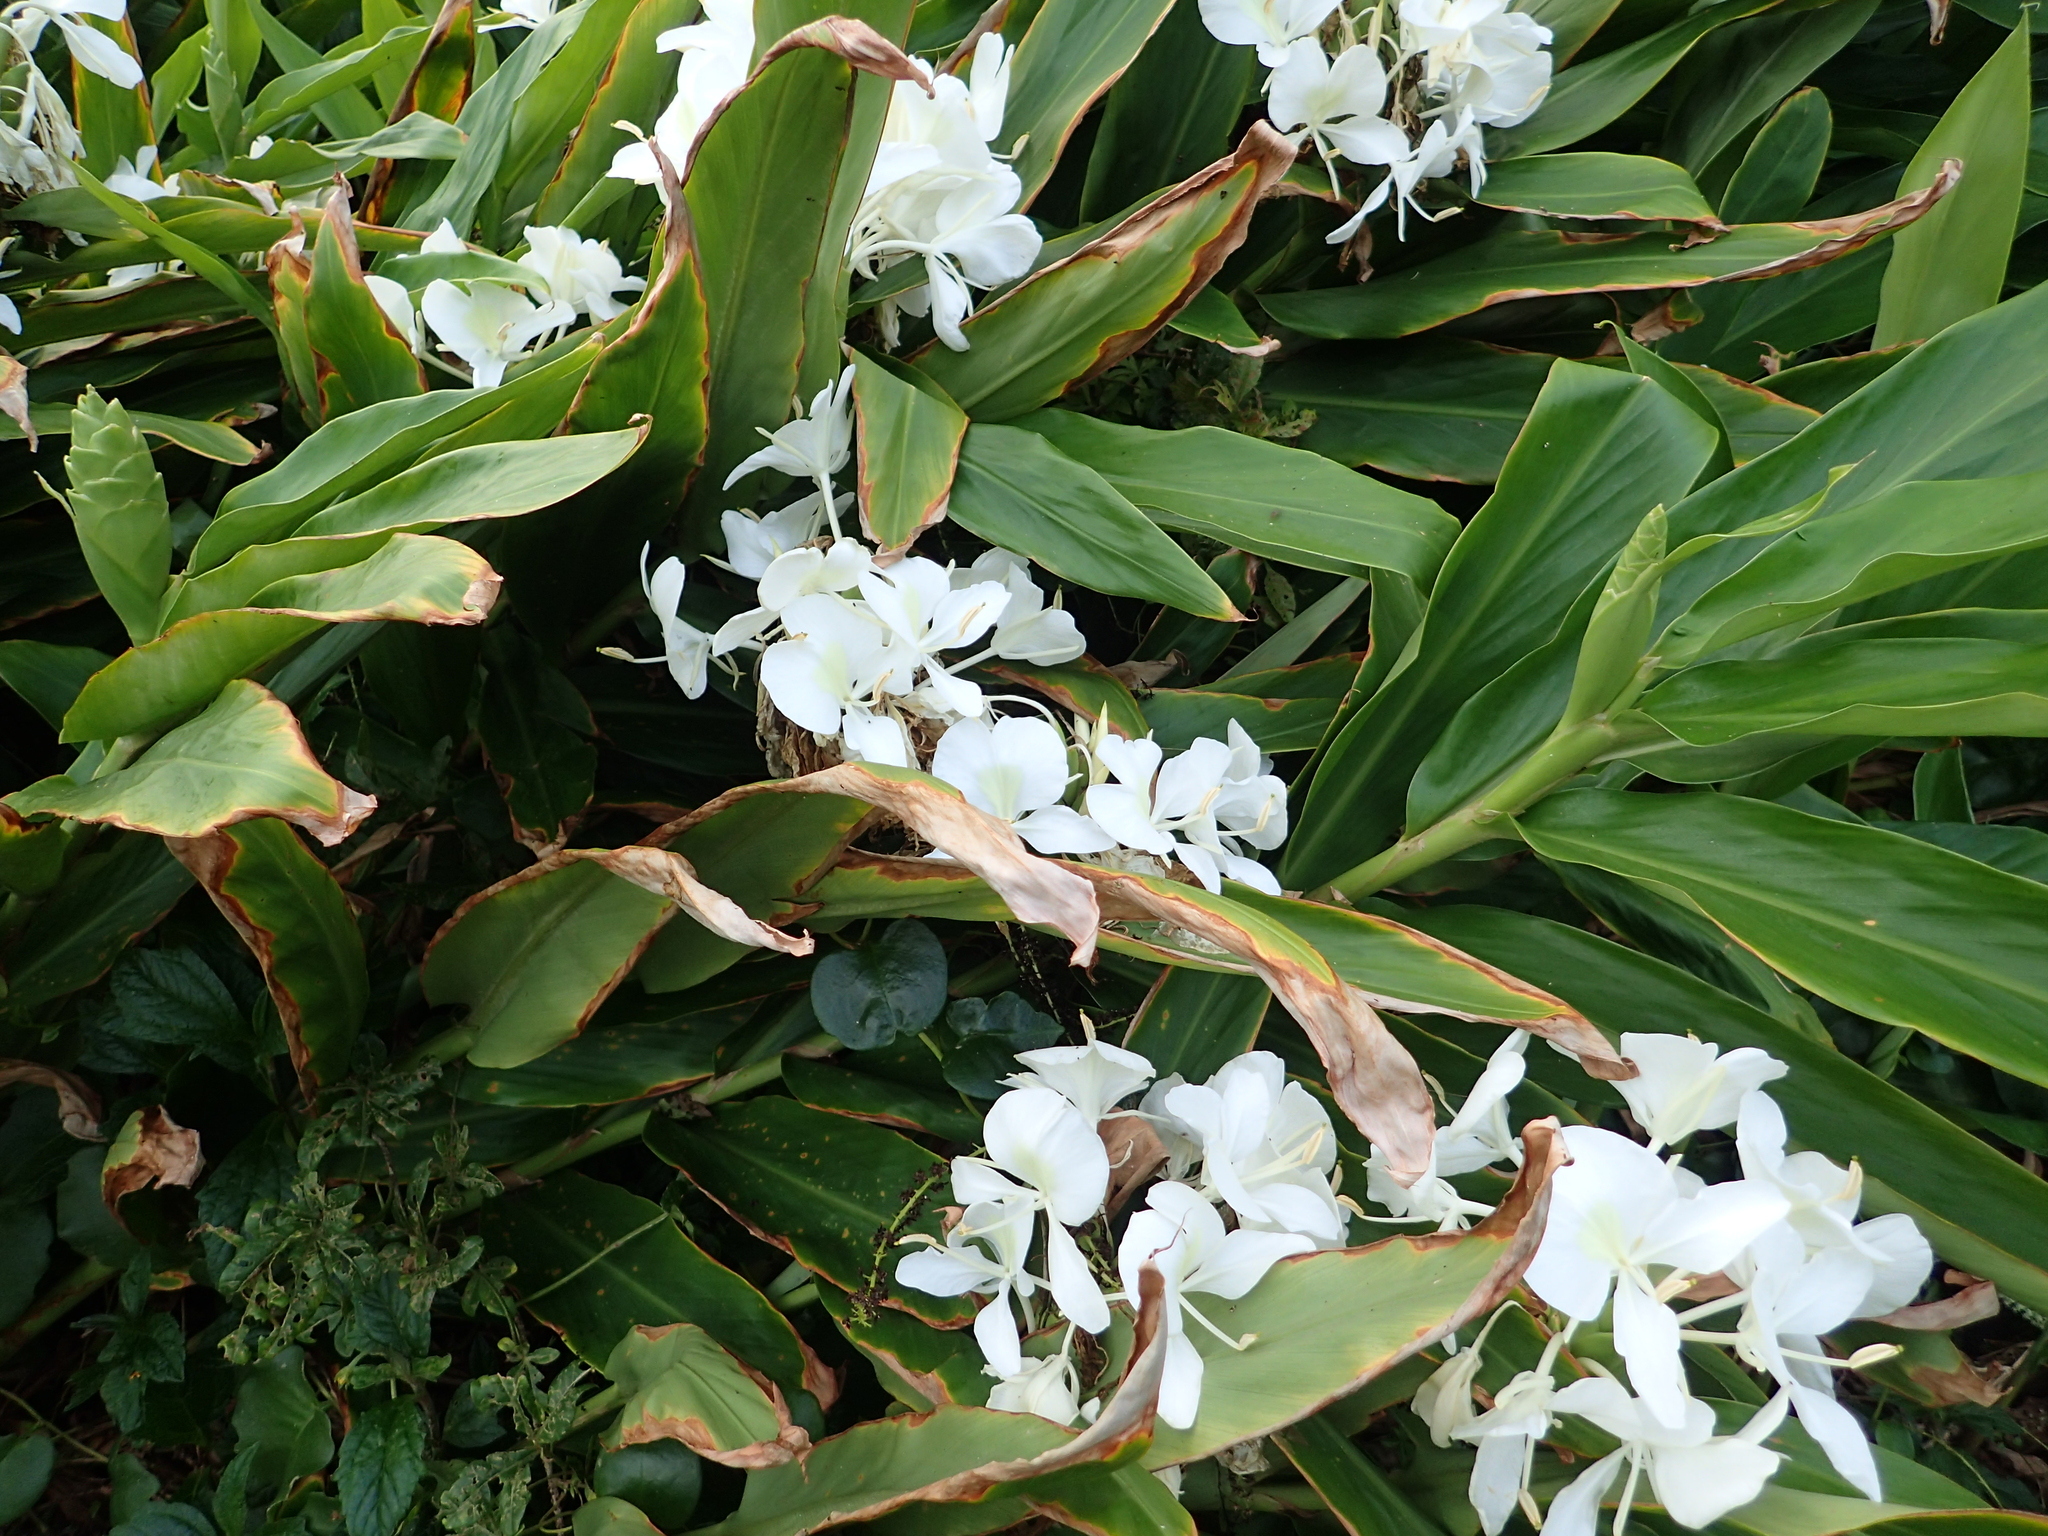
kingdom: Plantae
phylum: Tracheophyta
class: Liliopsida
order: Zingiberales
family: Zingiberaceae
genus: Hedychium
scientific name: Hedychium coronarium
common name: White garland-lily
